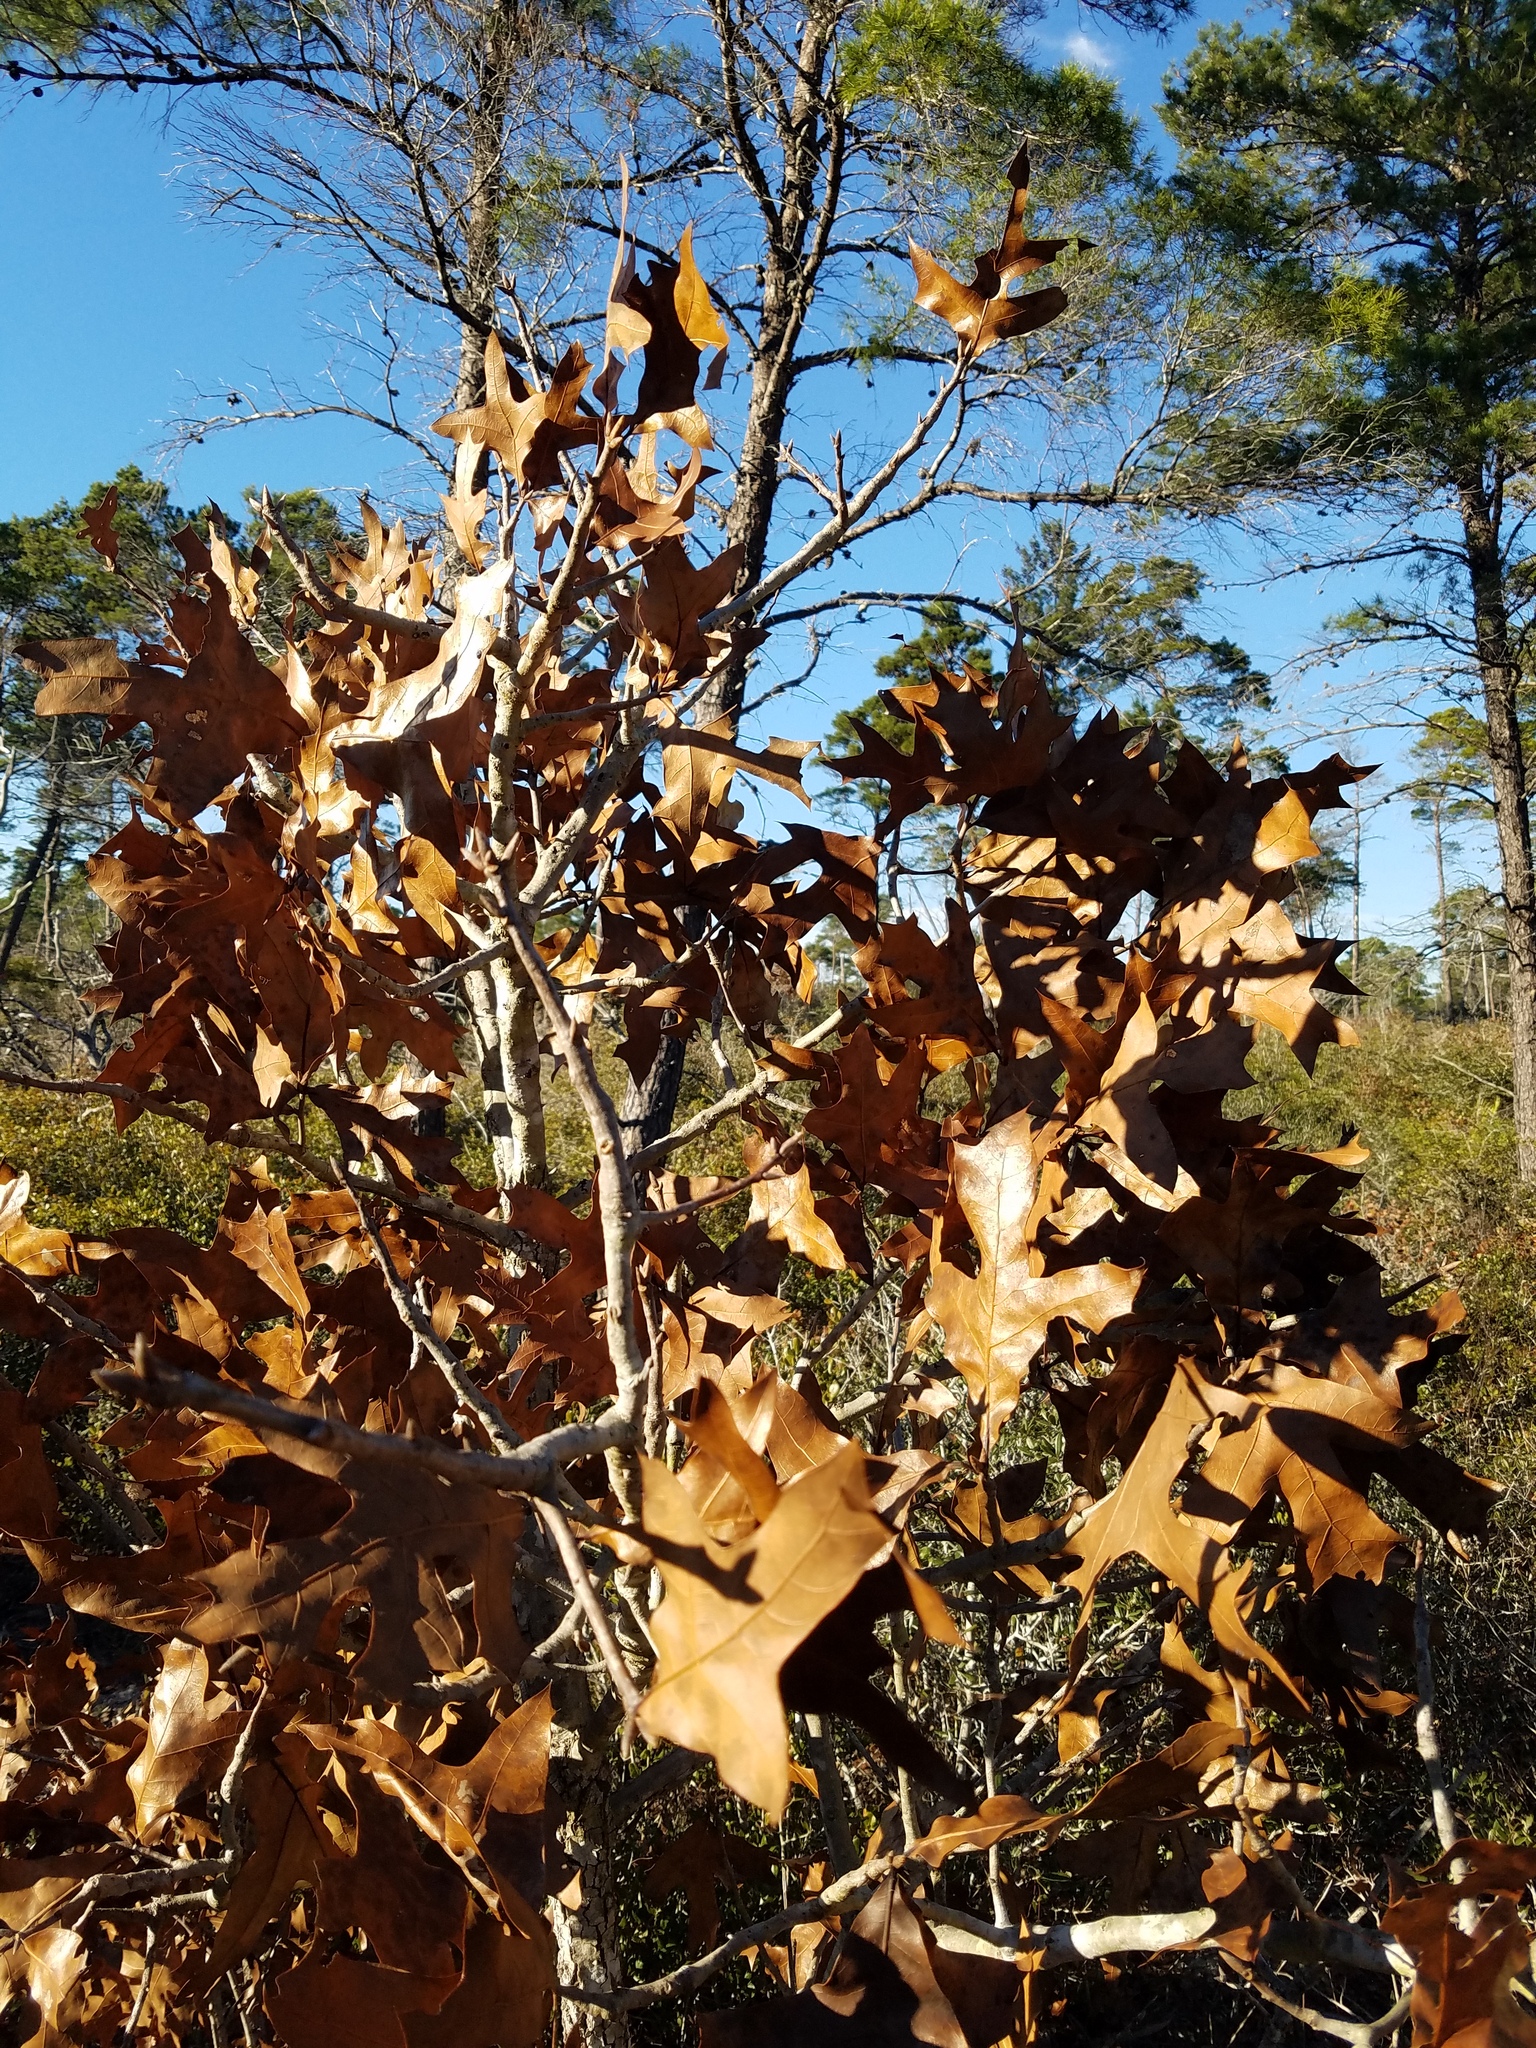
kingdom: Plantae
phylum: Tracheophyta
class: Magnoliopsida
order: Fagales
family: Fagaceae
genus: Quercus
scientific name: Quercus laevis
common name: Turkey oak
